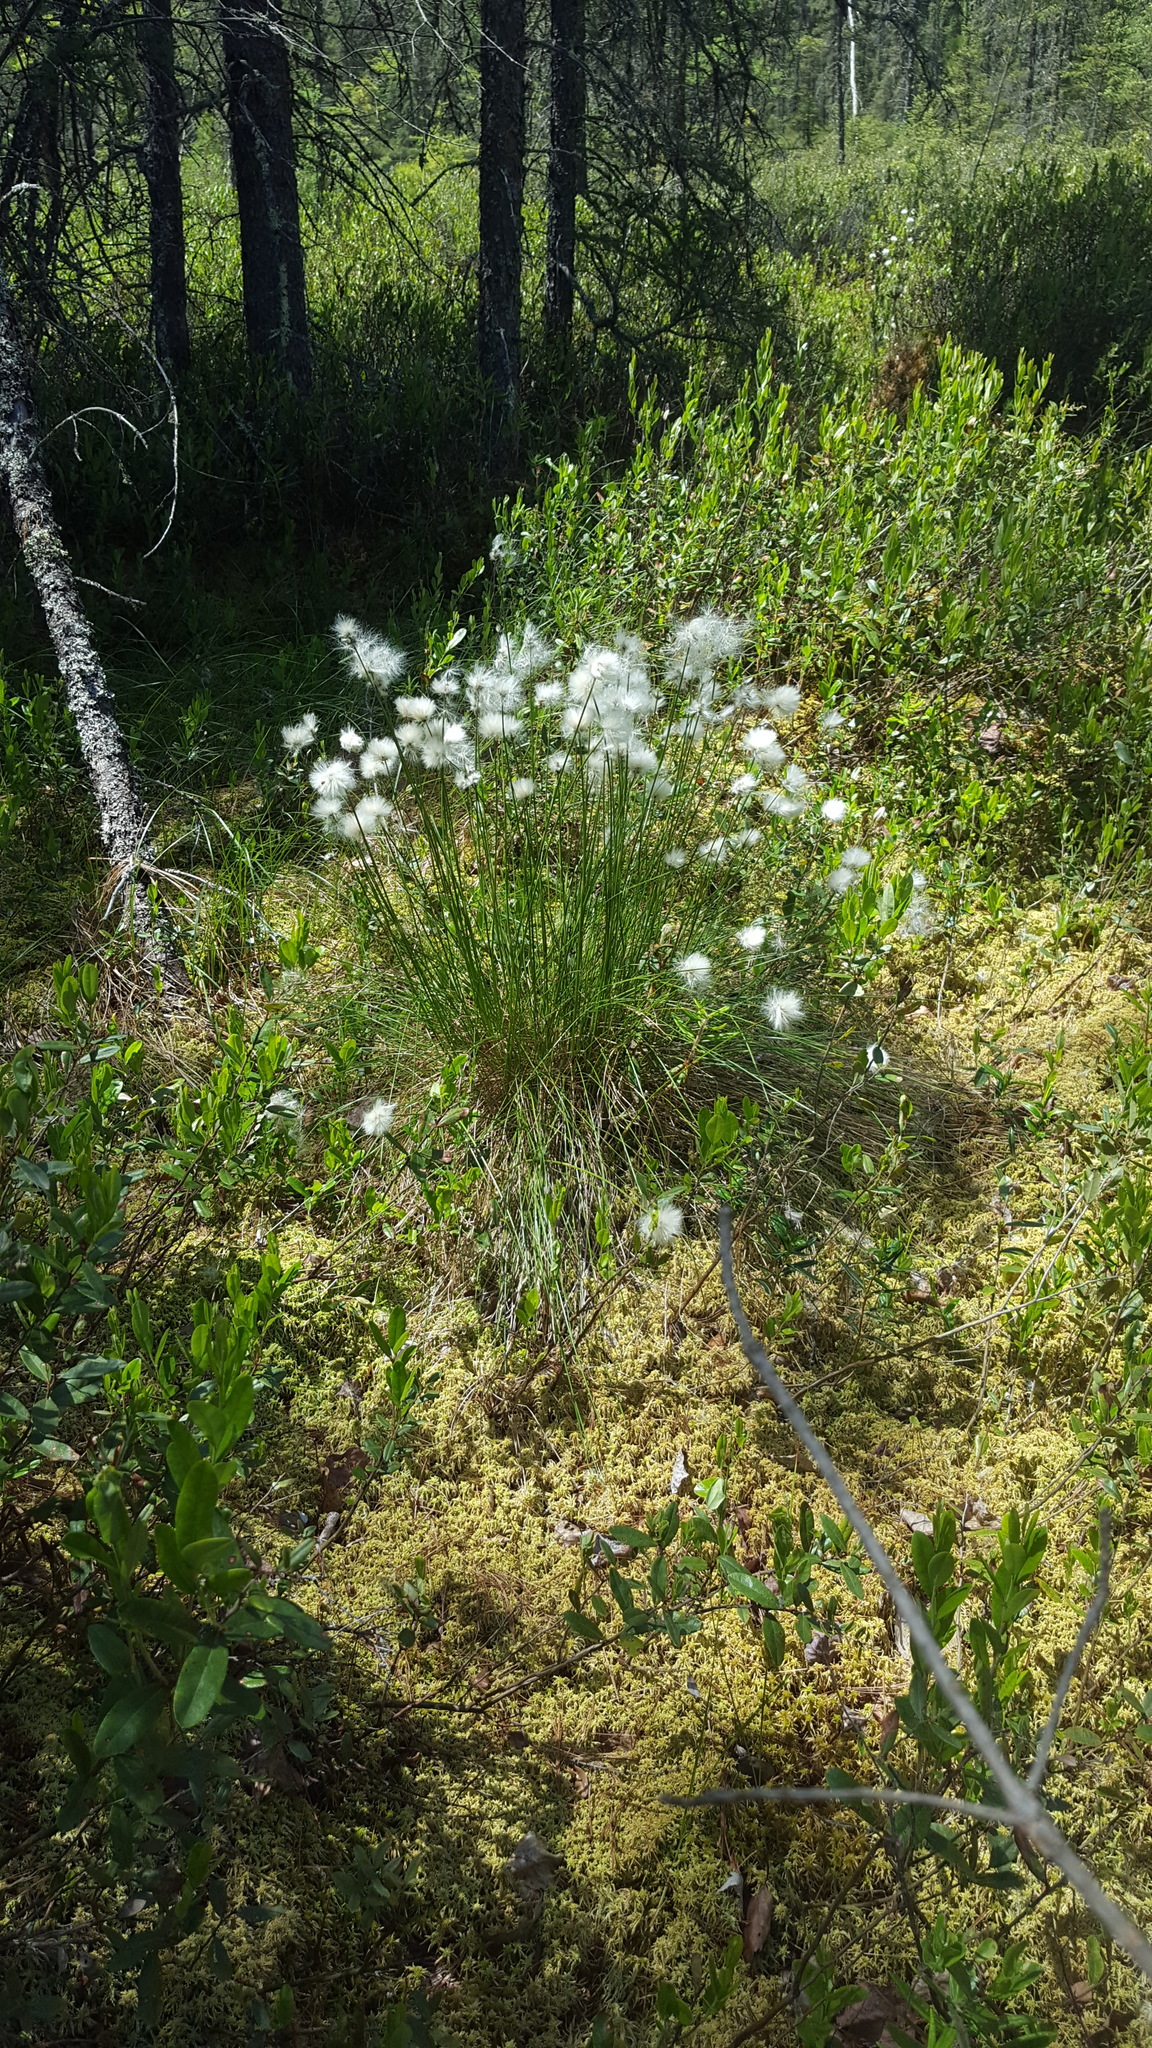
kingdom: Plantae
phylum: Tracheophyta
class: Liliopsida
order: Poales
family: Cyperaceae
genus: Eriophorum
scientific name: Eriophorum vaginatum
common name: Hare's-tail cottongrass
